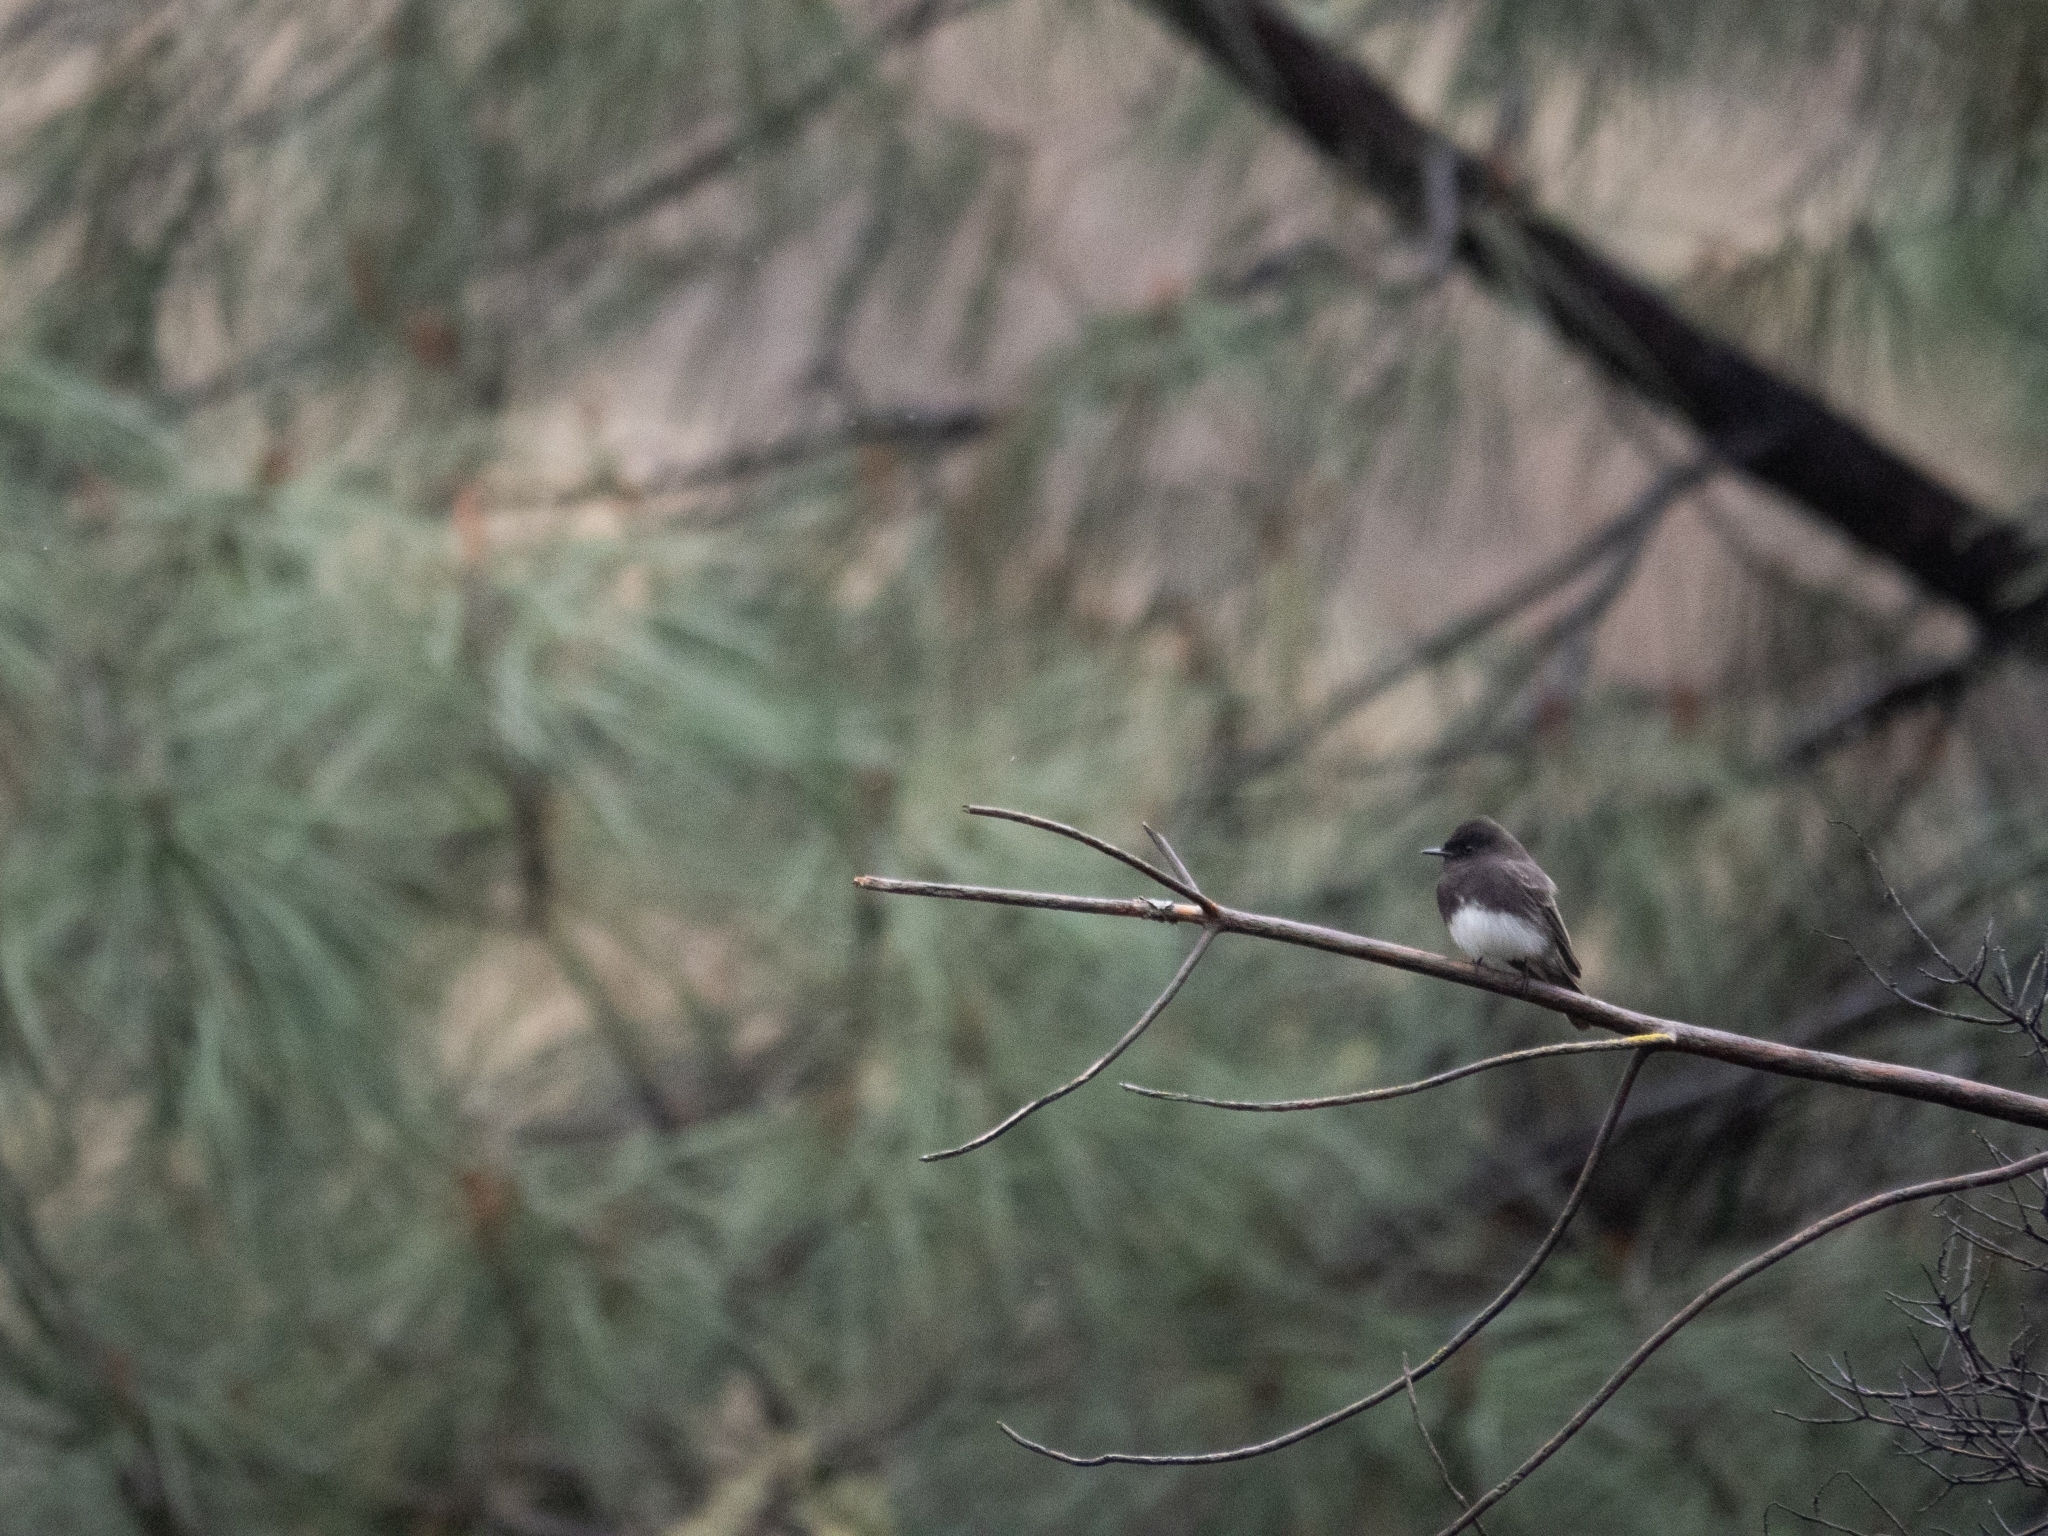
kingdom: Animalia
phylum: Chordata
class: Aves
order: Passeriformes
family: Tyrannidae
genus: Sayornis
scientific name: Sayornis nigricans
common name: Black phoebe
